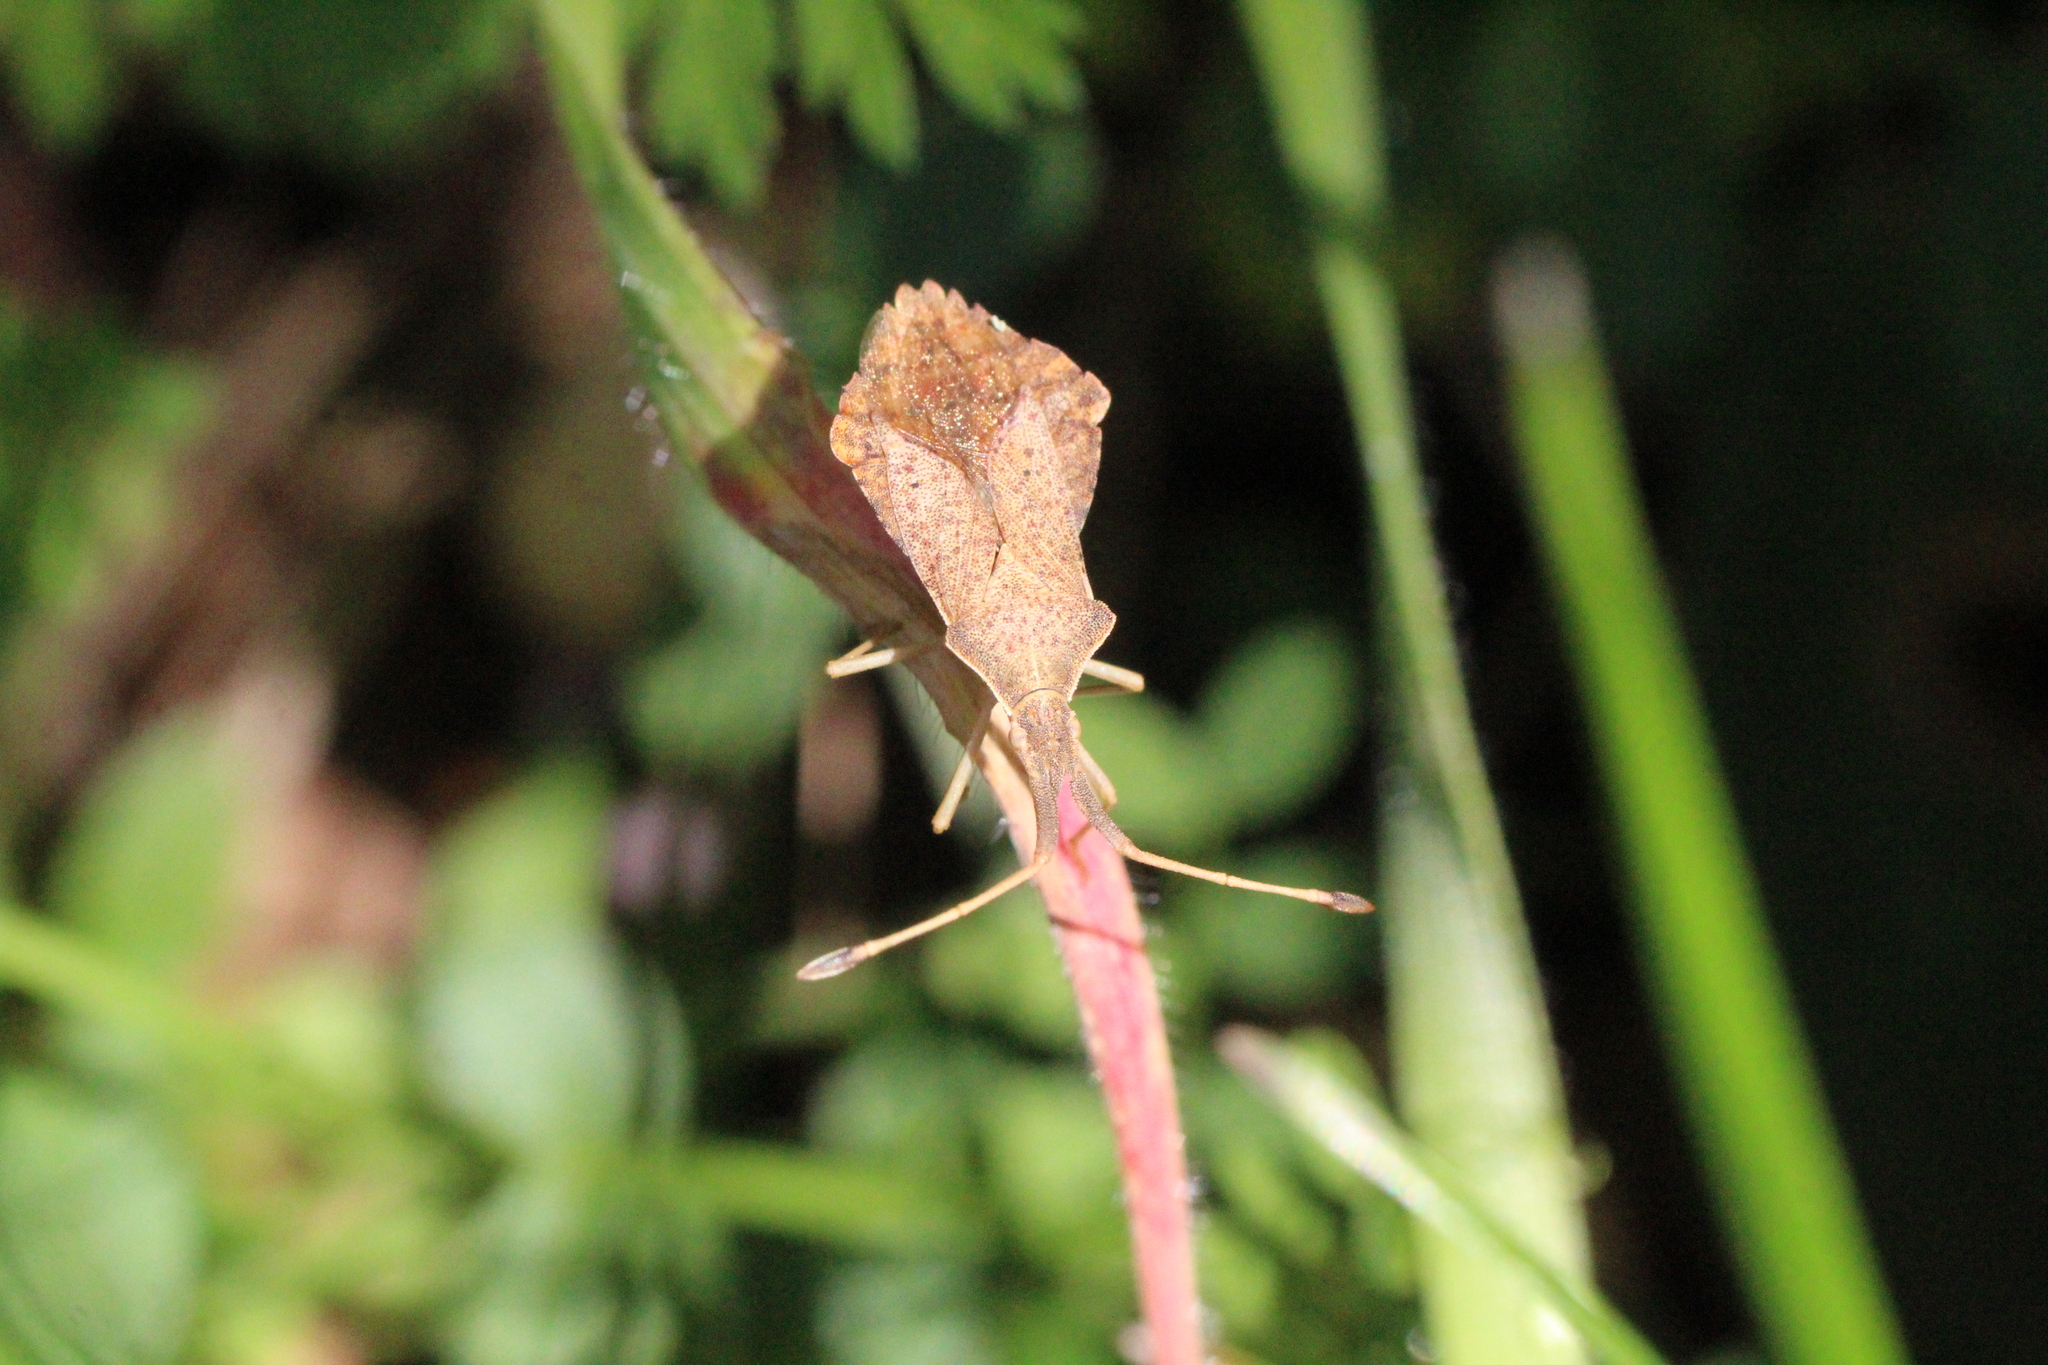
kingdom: Animalia
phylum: Arthropoda
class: Insecta
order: Hemiptera
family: Coreidae
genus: Syromastus
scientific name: Syromastus rhombeus
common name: Rhombic leatherbug
